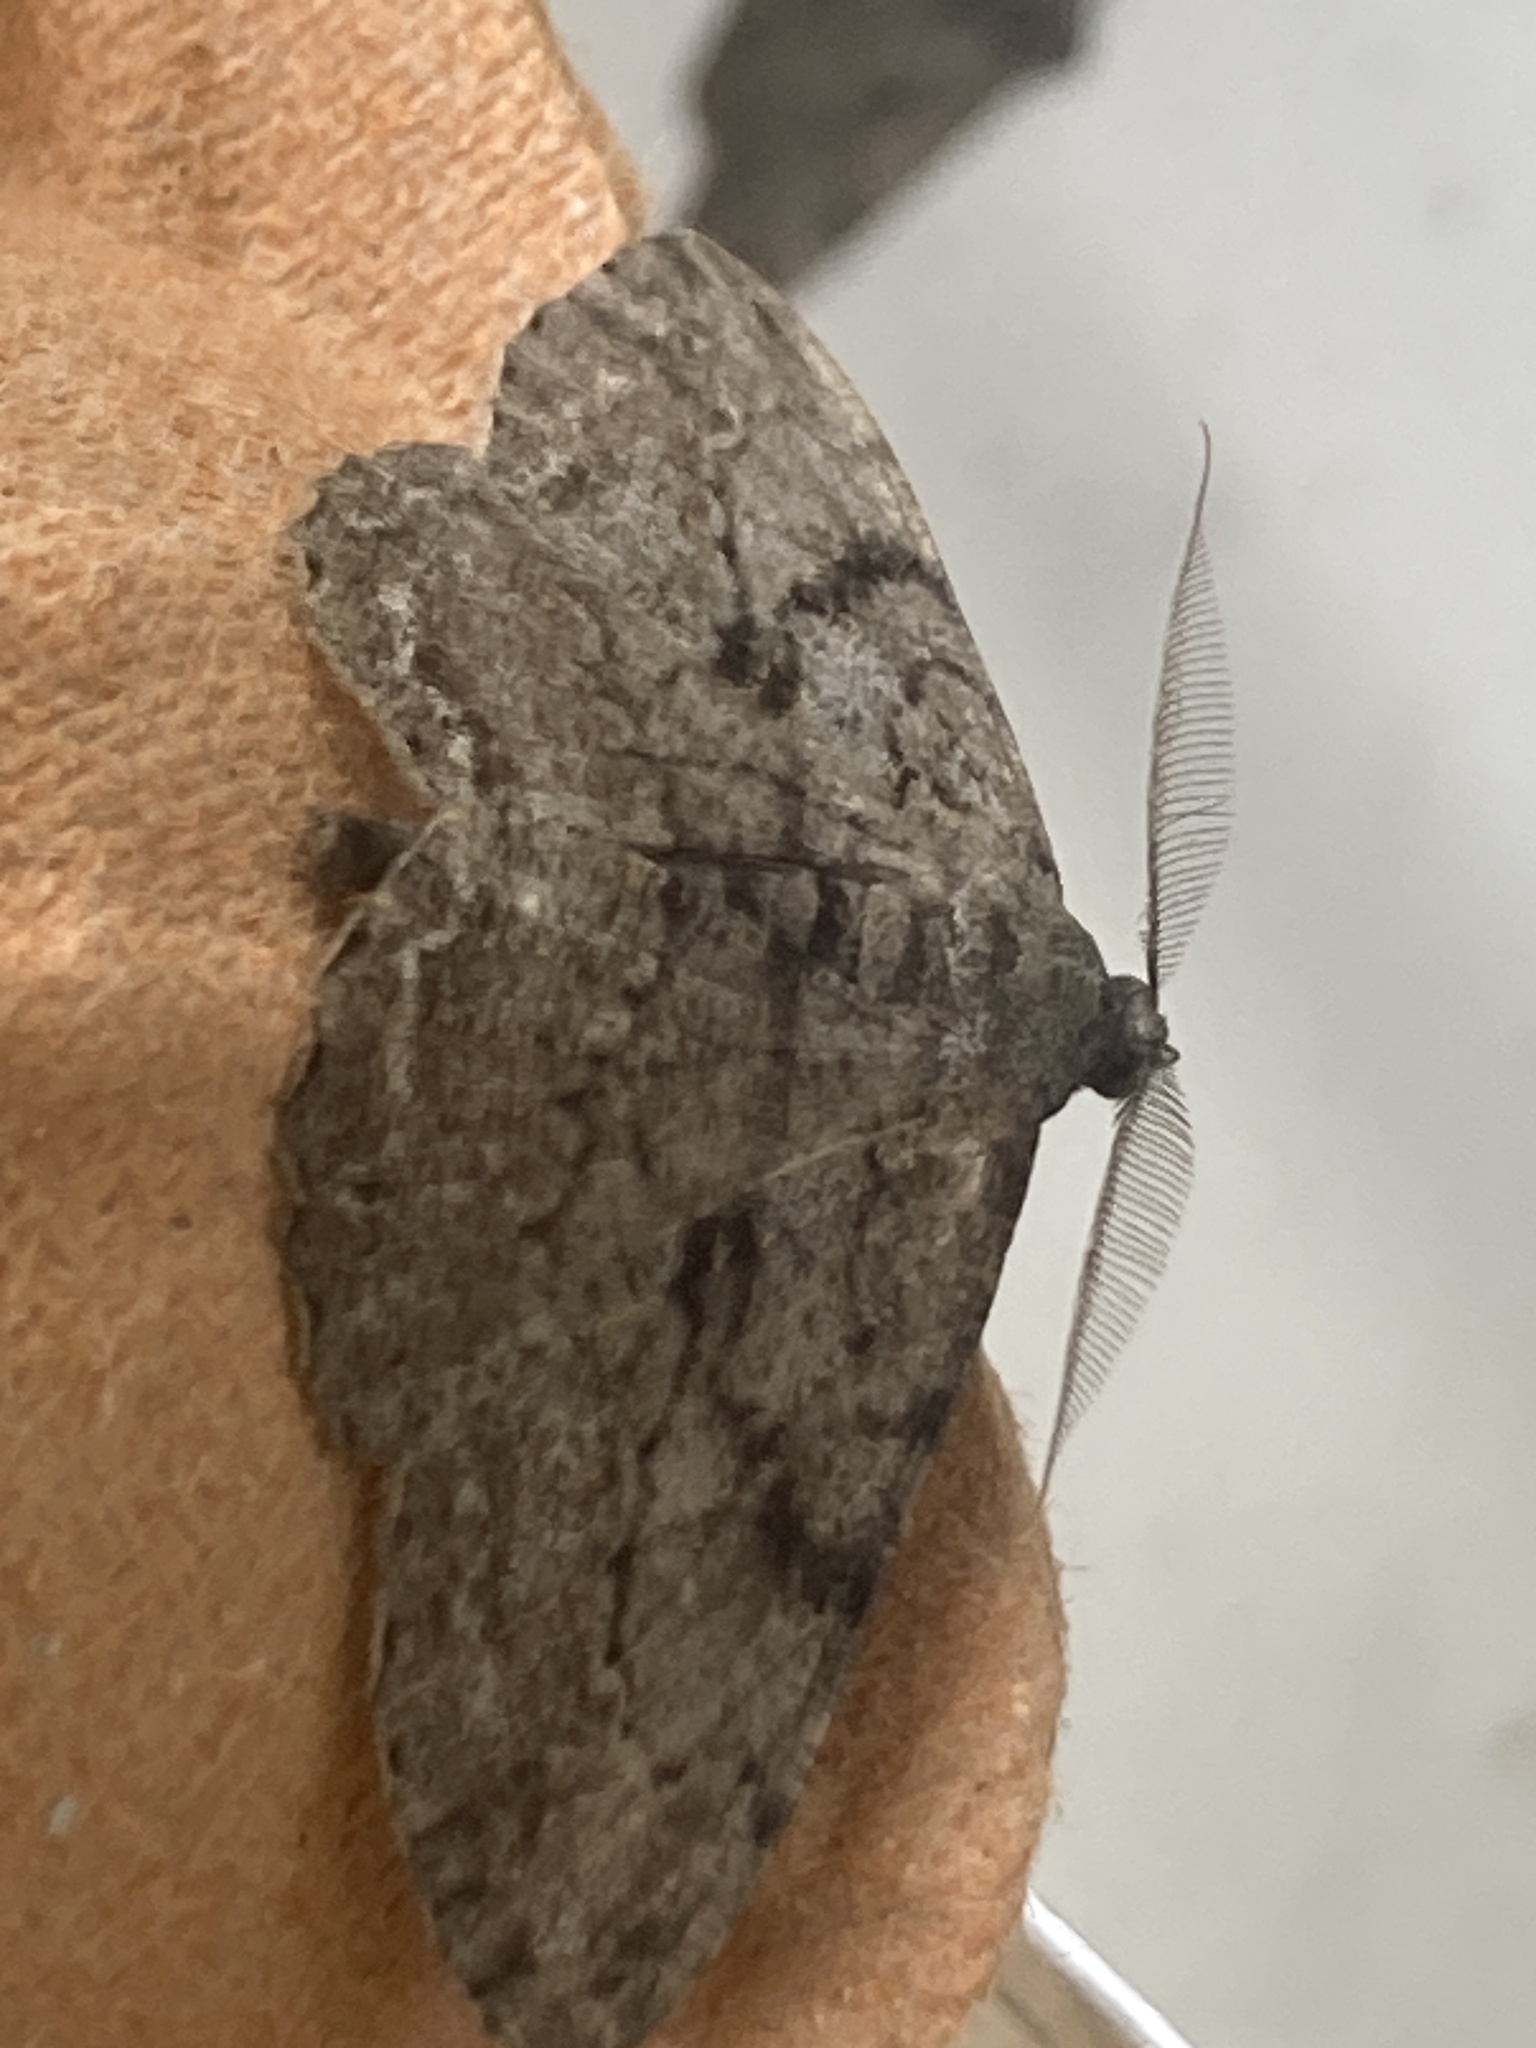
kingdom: Animalia
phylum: Arthropoda
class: Insecta
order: Lepidoptera
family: Geometridae
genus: Peribatodes
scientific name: Peribatodes rhomboidaria
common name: Willow beauty
